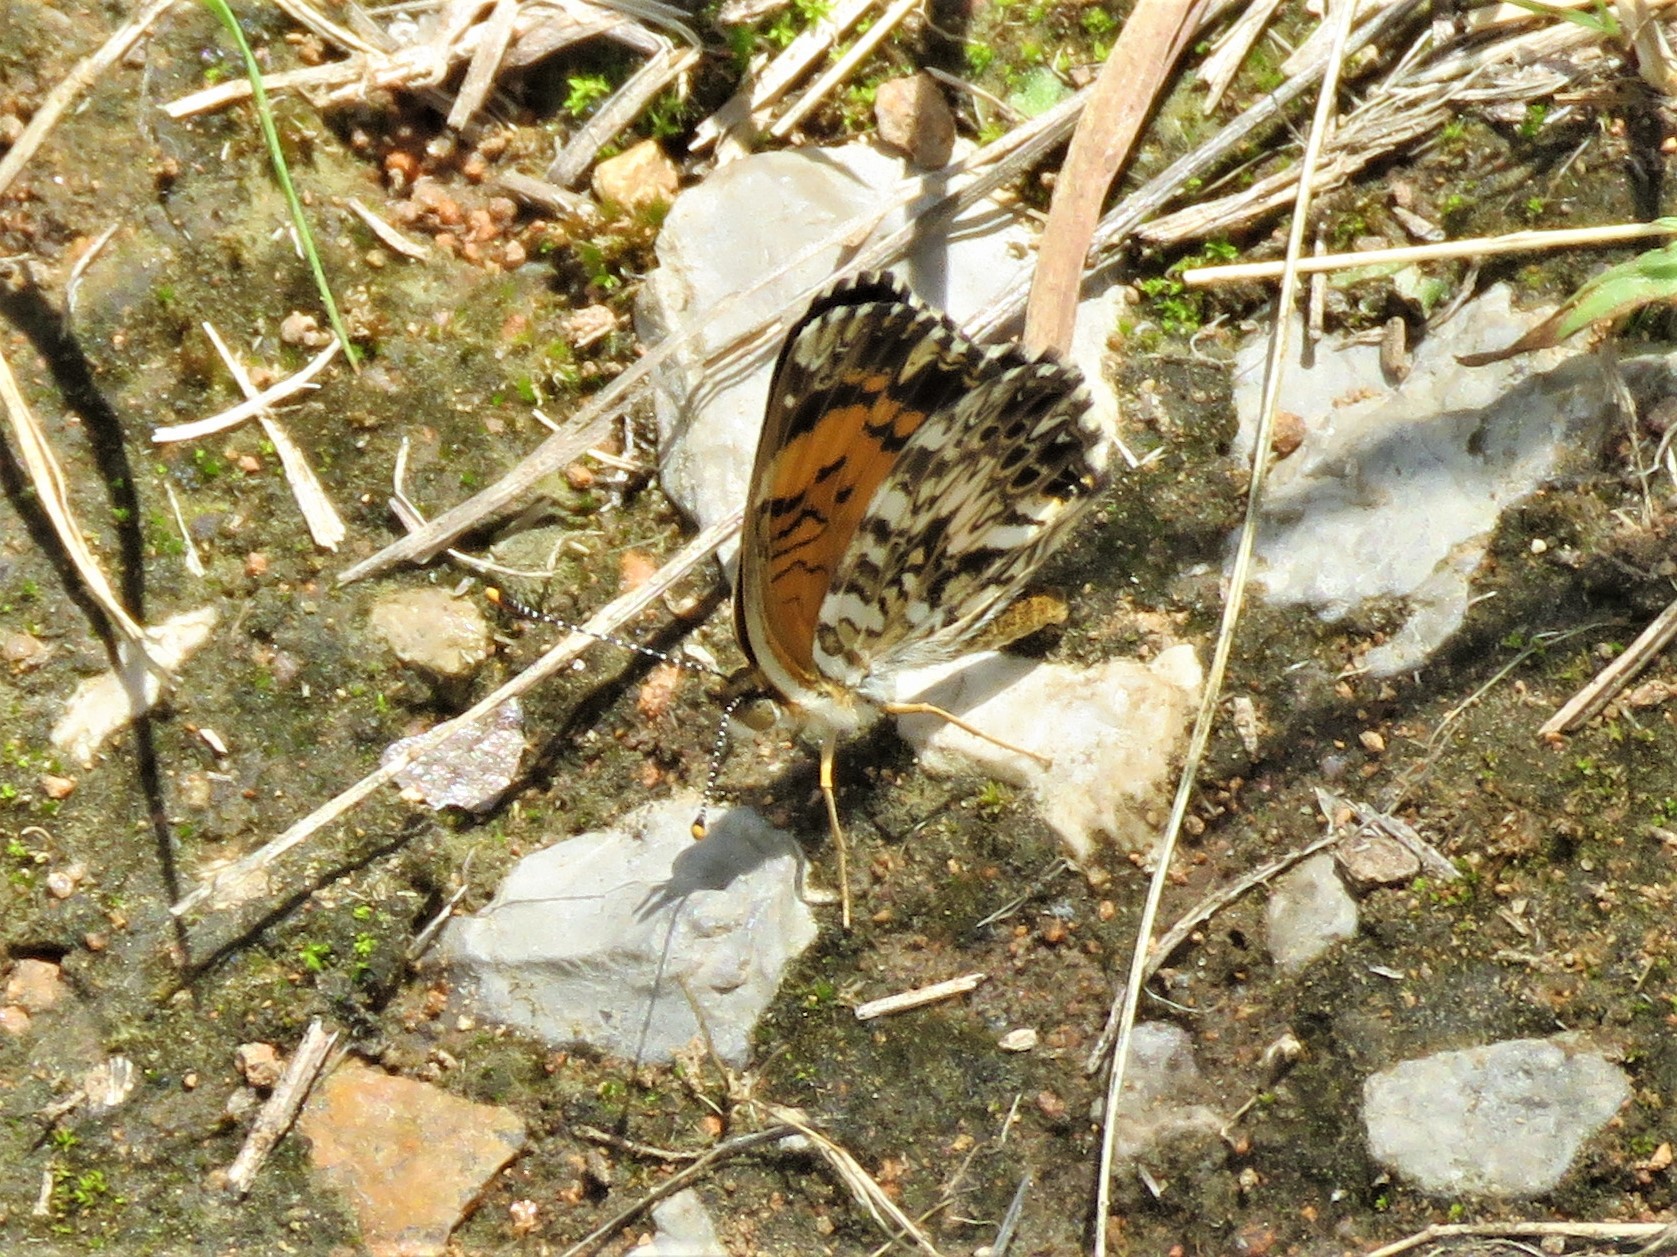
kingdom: Animalia
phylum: Arthropoda
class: Insecta
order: Lepidoptera
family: Nymphalidae
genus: Chlosyne
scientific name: Chlosyne gorgone
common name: Gorgone checkerspot
